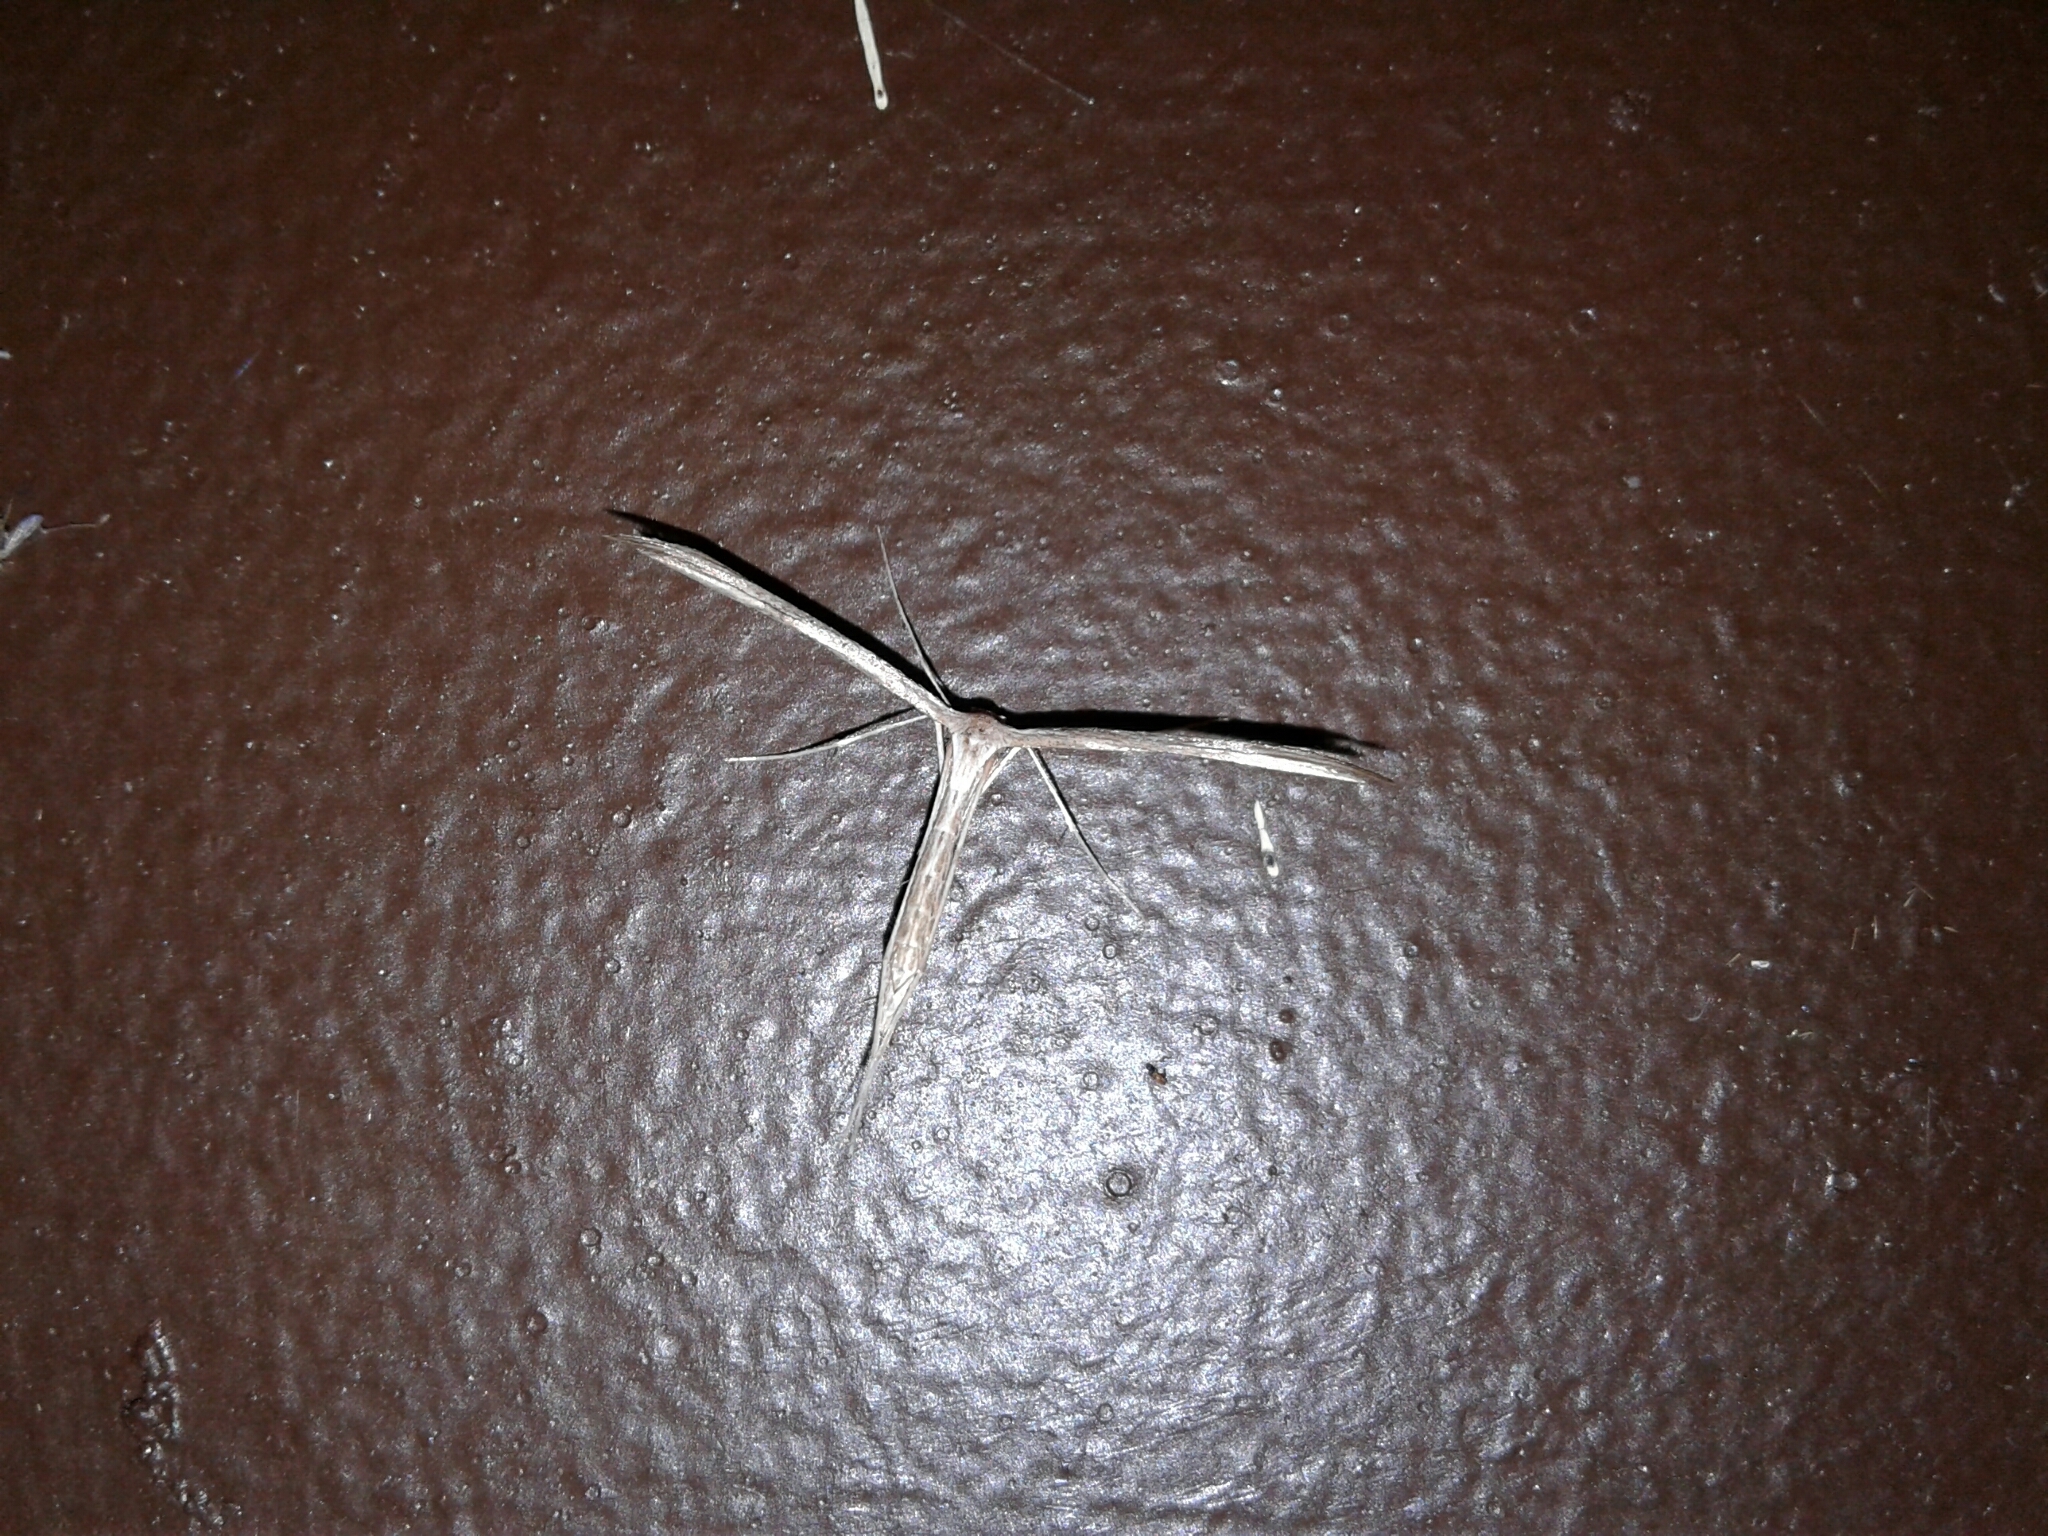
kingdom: Animalia
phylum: Arthropoda
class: Insecta
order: Lepidoptera
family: Pterophoridae
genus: Emmelina
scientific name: Emmelina monodactyla
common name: Common plume
